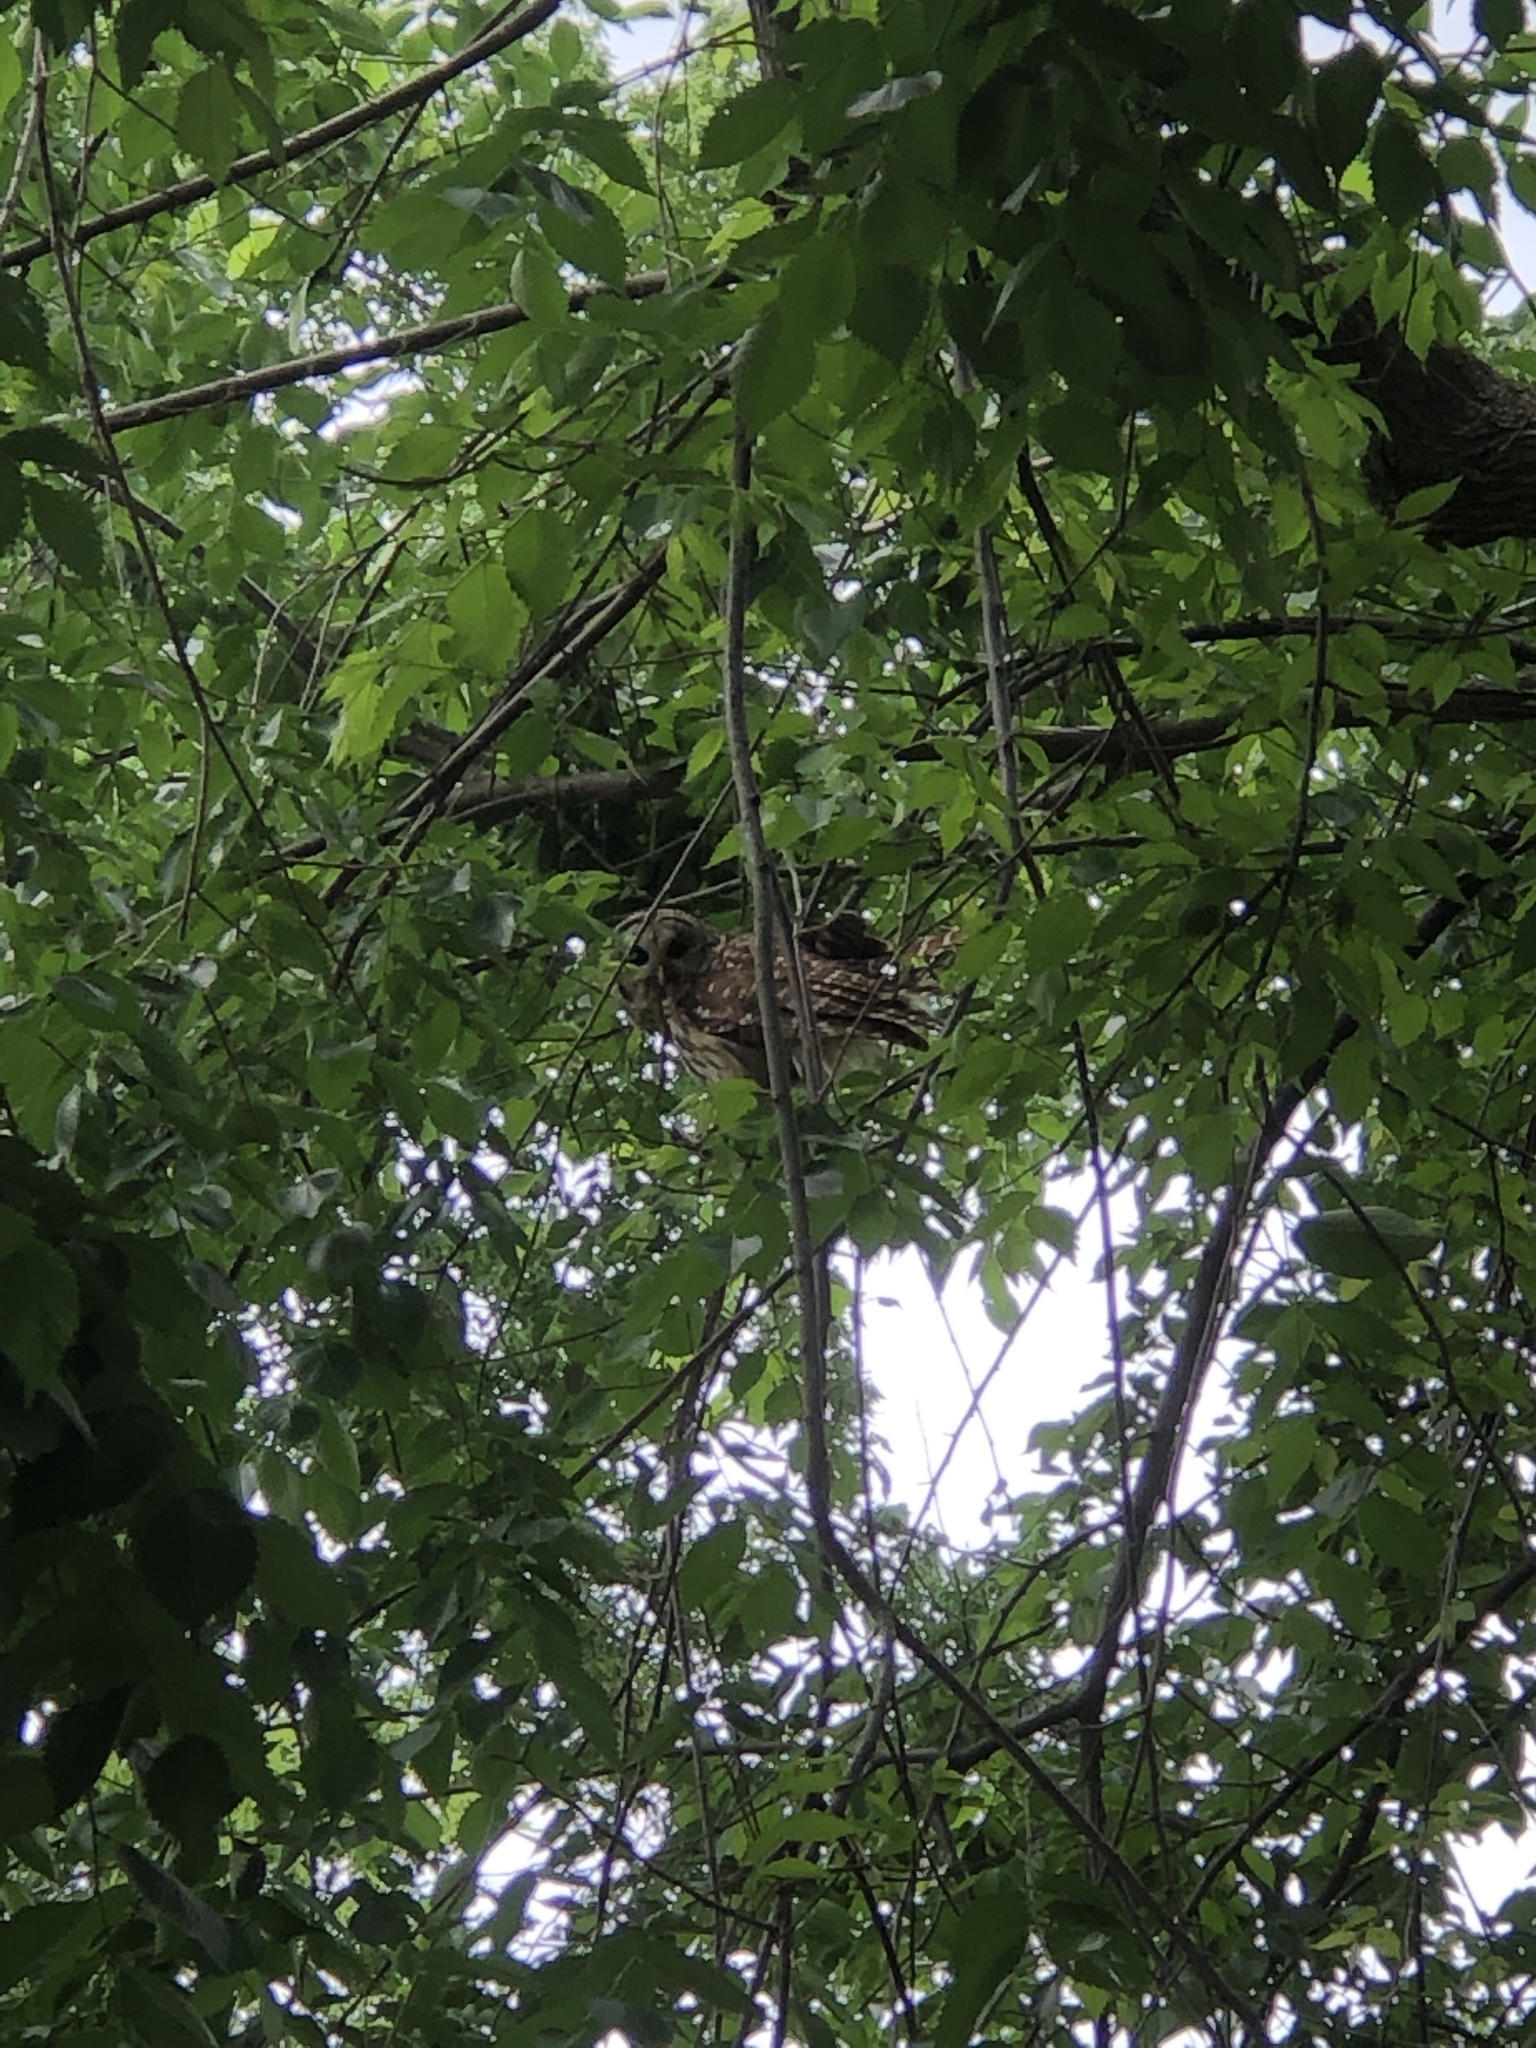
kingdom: Animalia
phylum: Chordata
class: Aves
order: Strigiformes
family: Strigidae
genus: Strix
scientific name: Strix varia
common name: Barred owl
